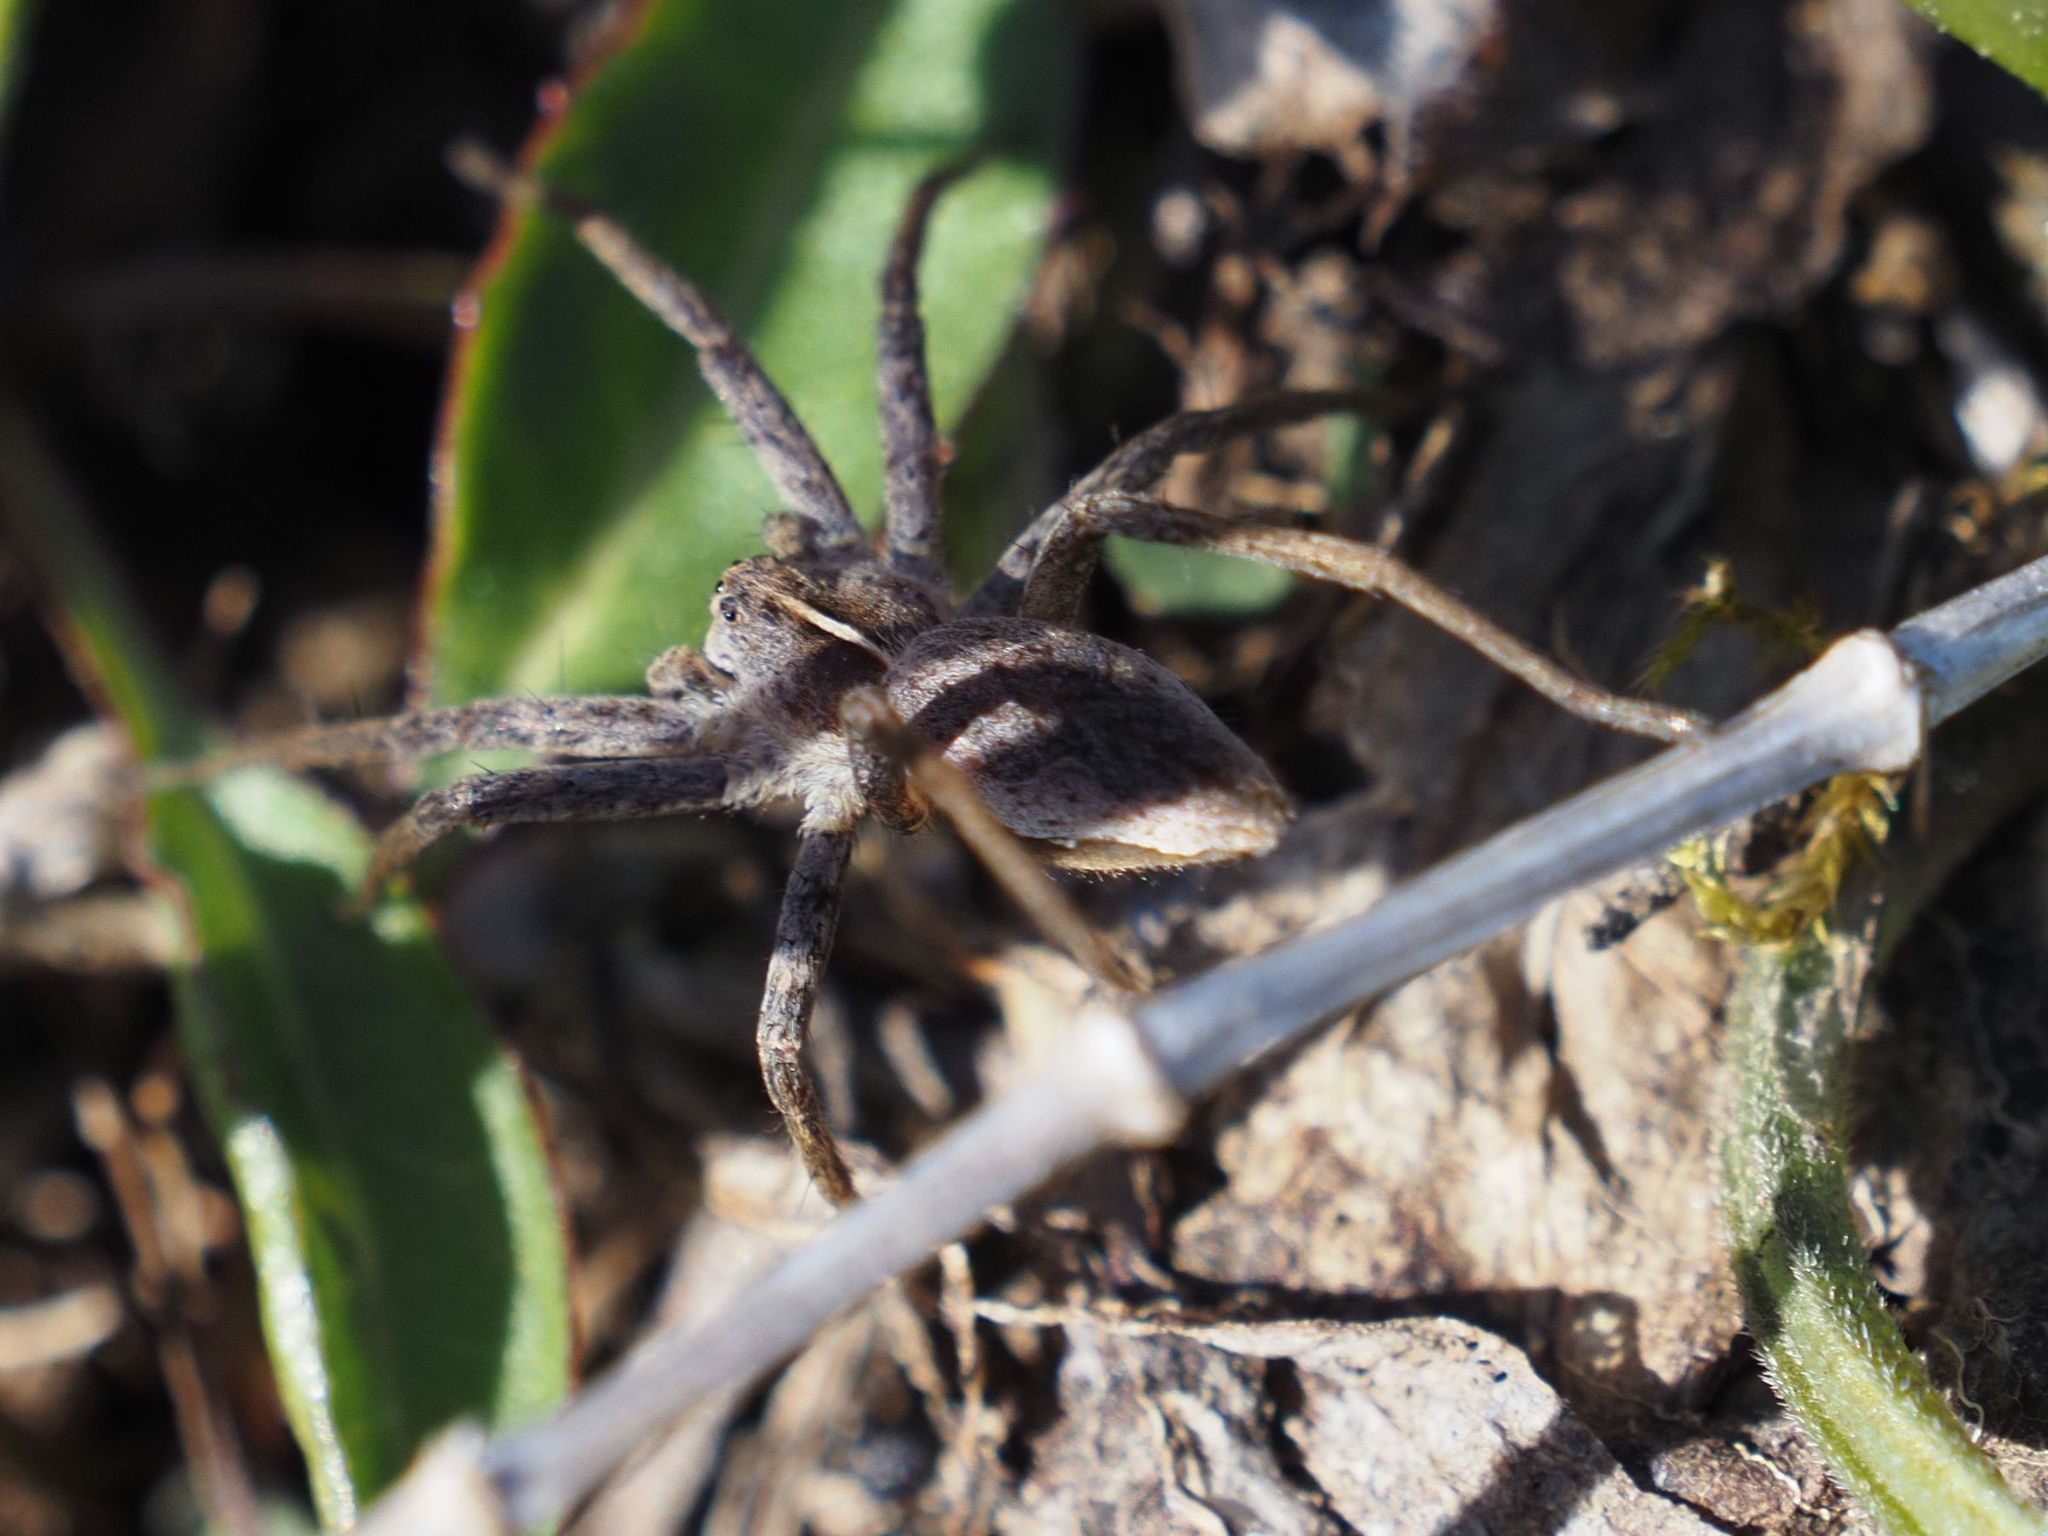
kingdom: Animalia
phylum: Arthropoda
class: Arachnida
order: Araneae
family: Pisauridae
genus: Pisaura
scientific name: Pisaura mirabilis
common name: Tent spider
